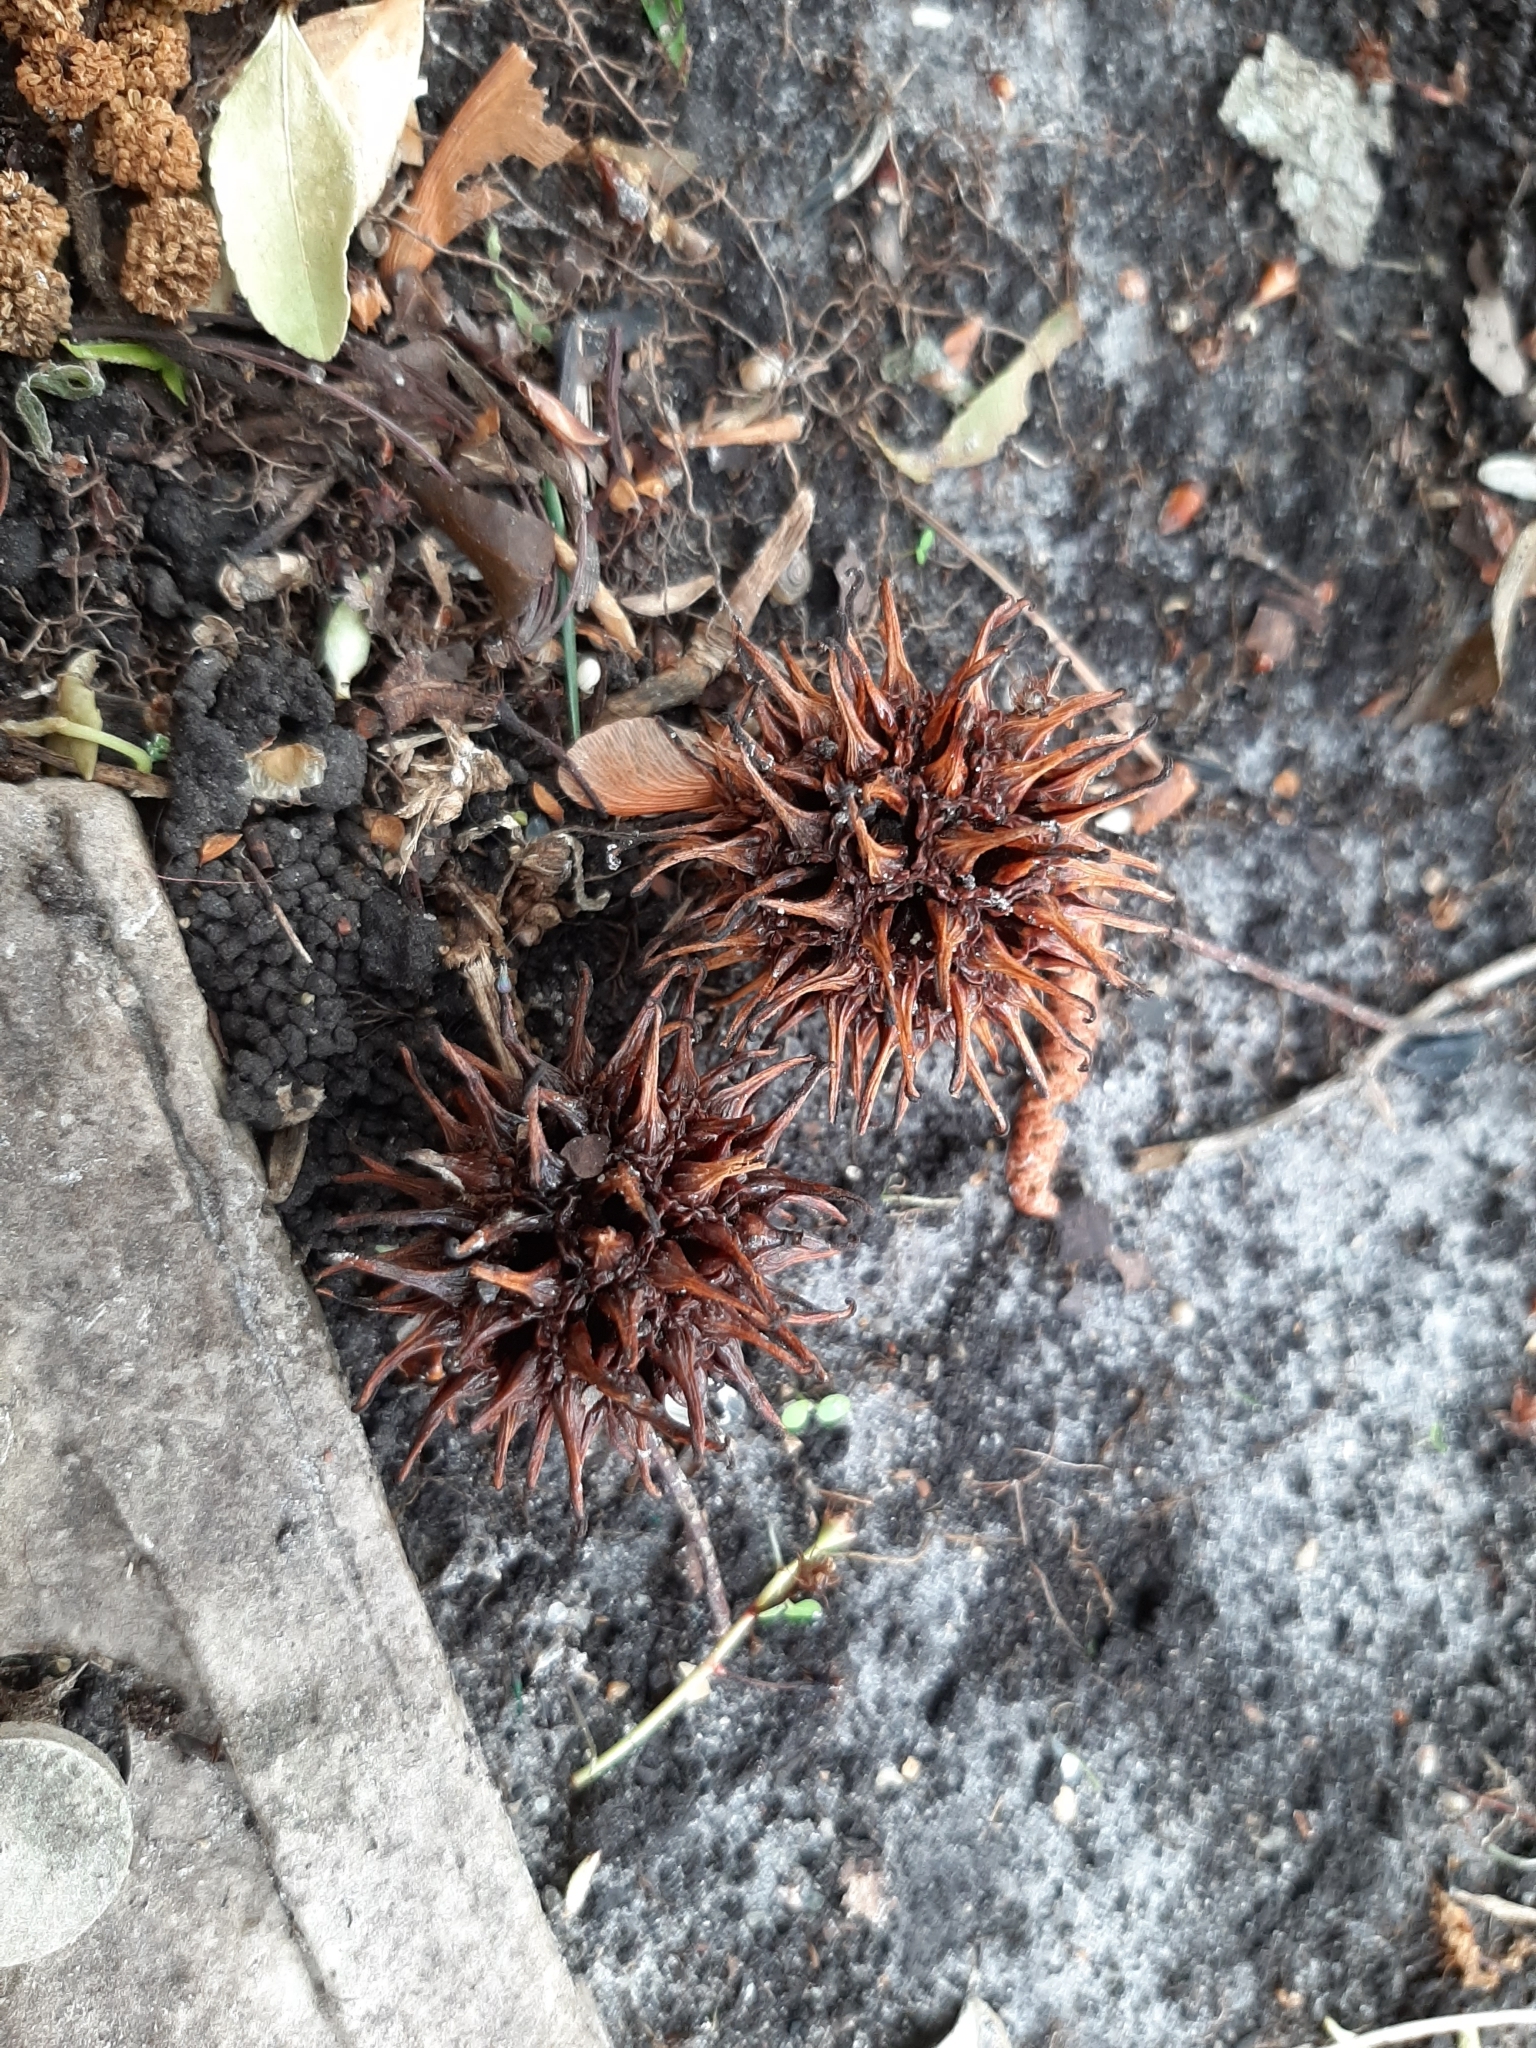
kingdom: Plantae
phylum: Tracheophyta
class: Magnoliopsida
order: Saxifragales
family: Altingiaceae
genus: Liquidambar
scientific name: Liquidambar styraciflua
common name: Sweet gum
